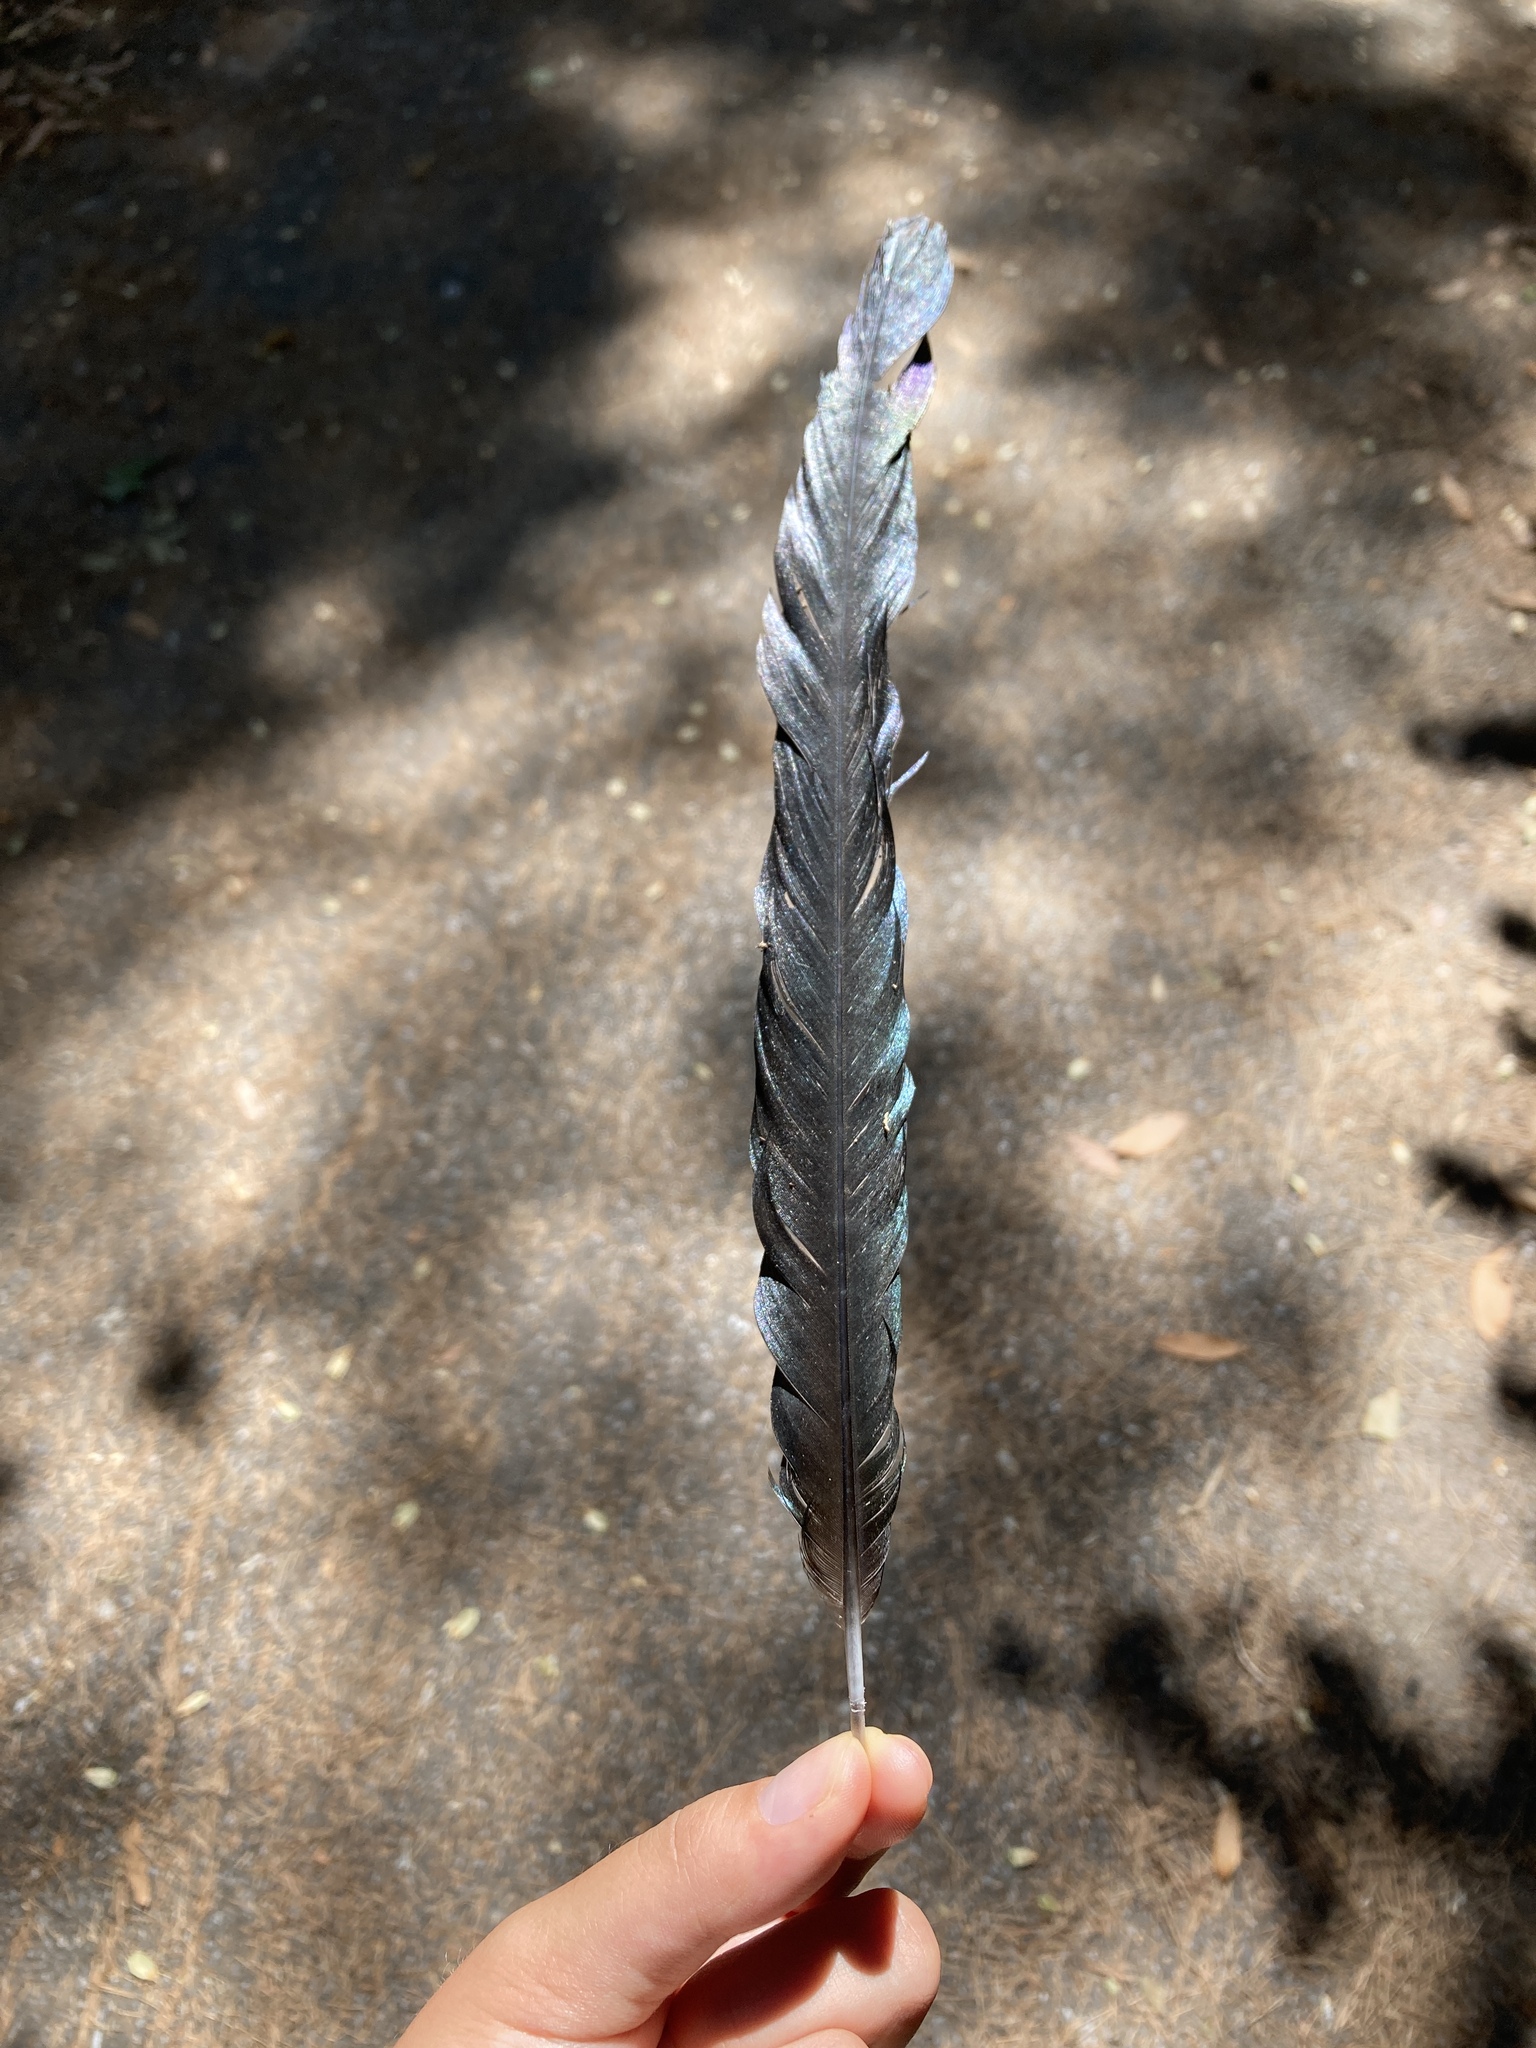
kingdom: Animalia
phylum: Chordata
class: Aves
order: Passeriformes
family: Corvidae
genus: Pica
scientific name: Pica pica
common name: Eurasian magpie
